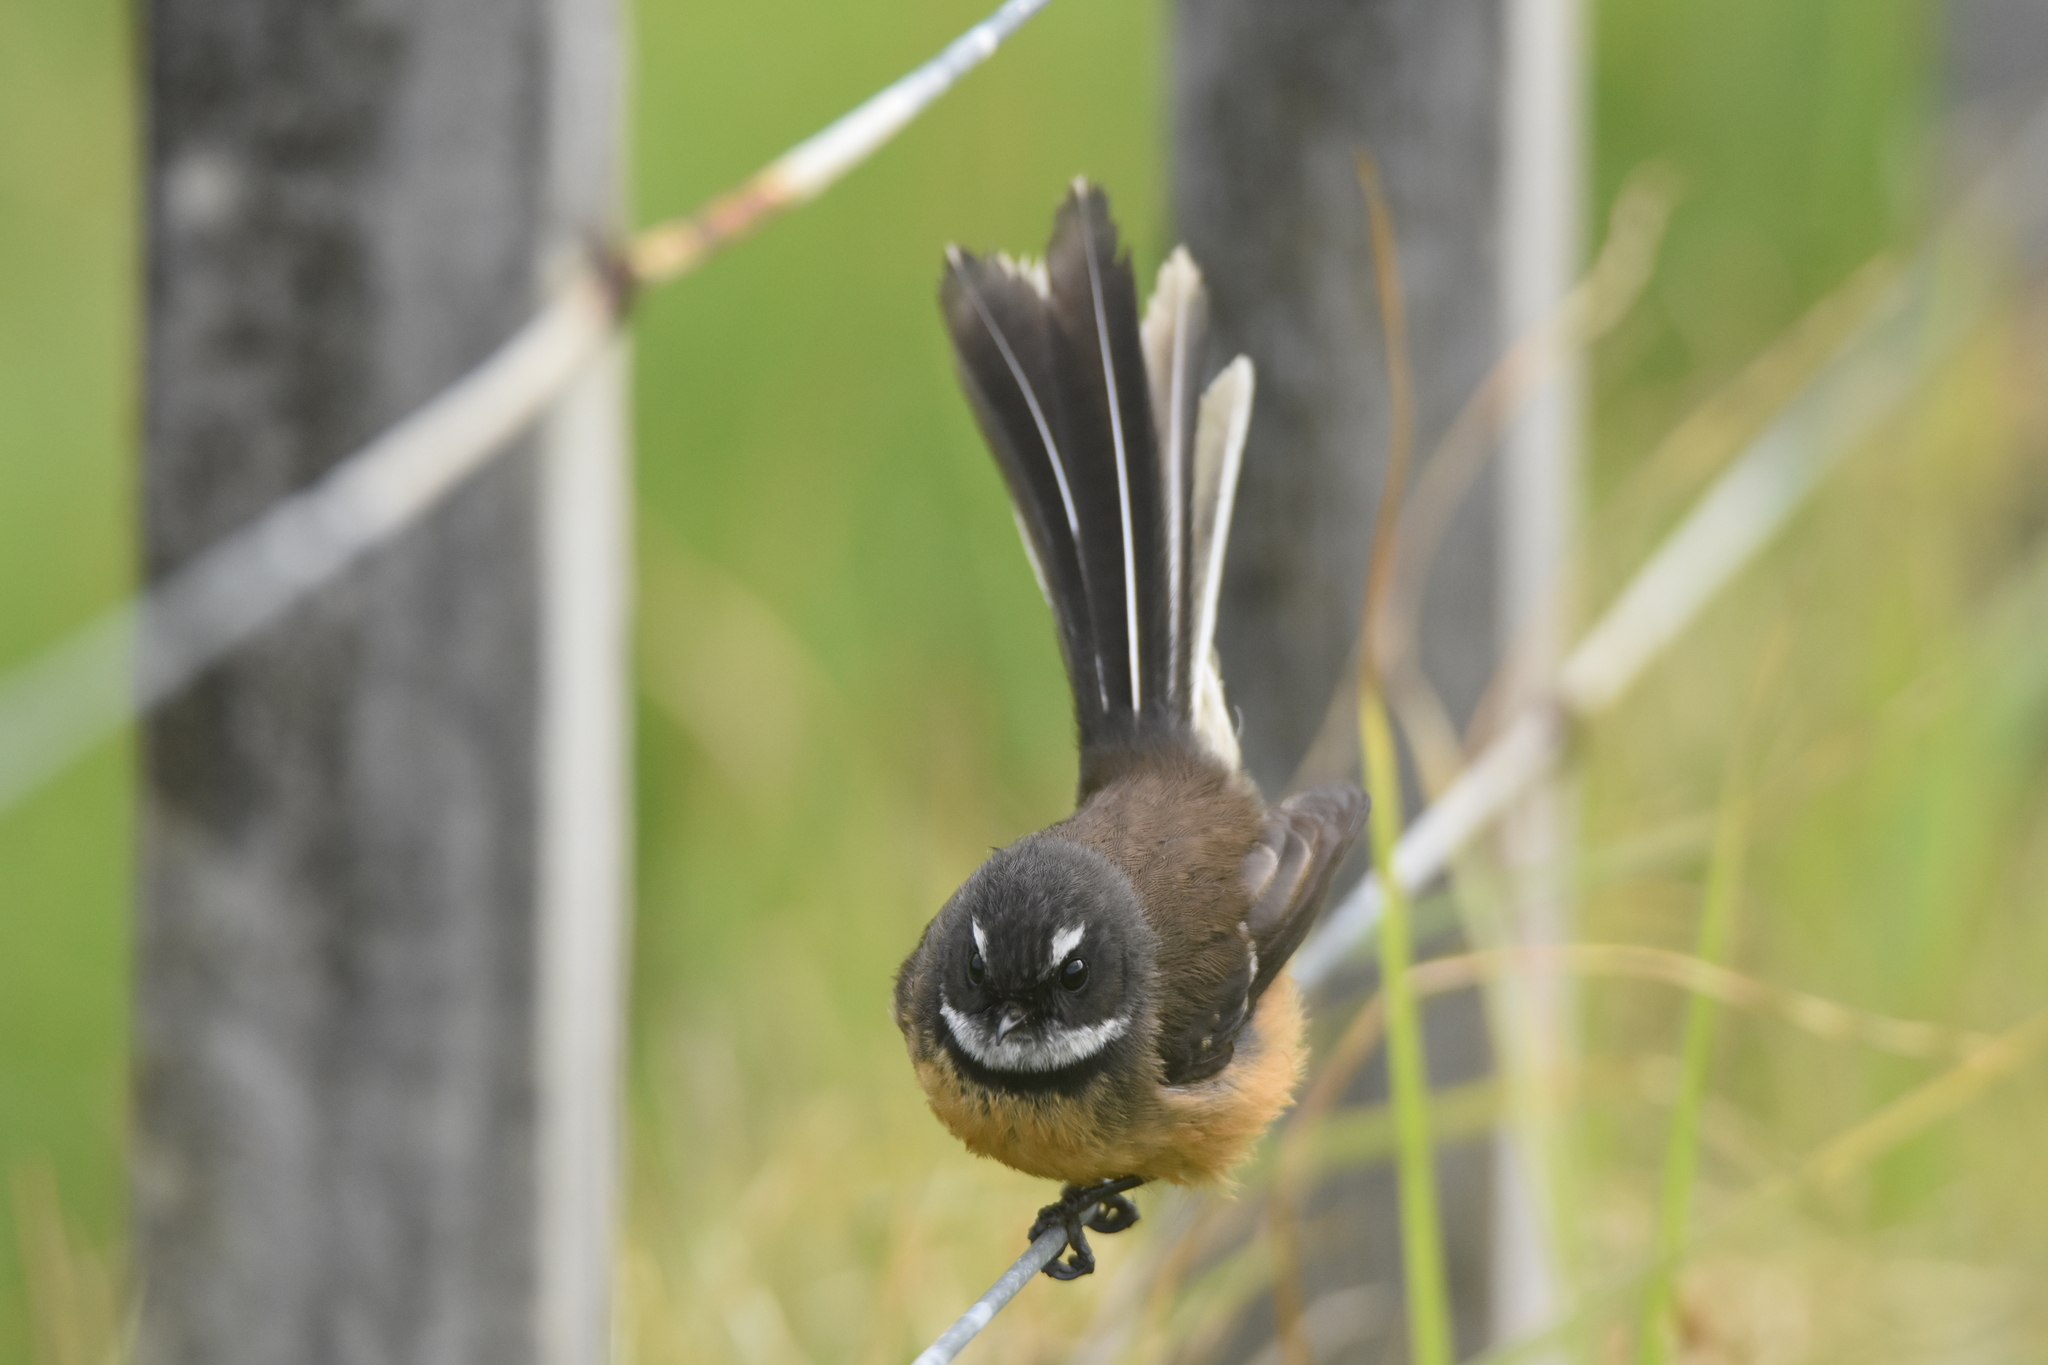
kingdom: Animalia
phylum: Chordata
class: Aves
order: Passeriformes
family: Rhipiduridae
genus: Rhipidura
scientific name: Rhipidura fuliginosa
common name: New zealand fantail
